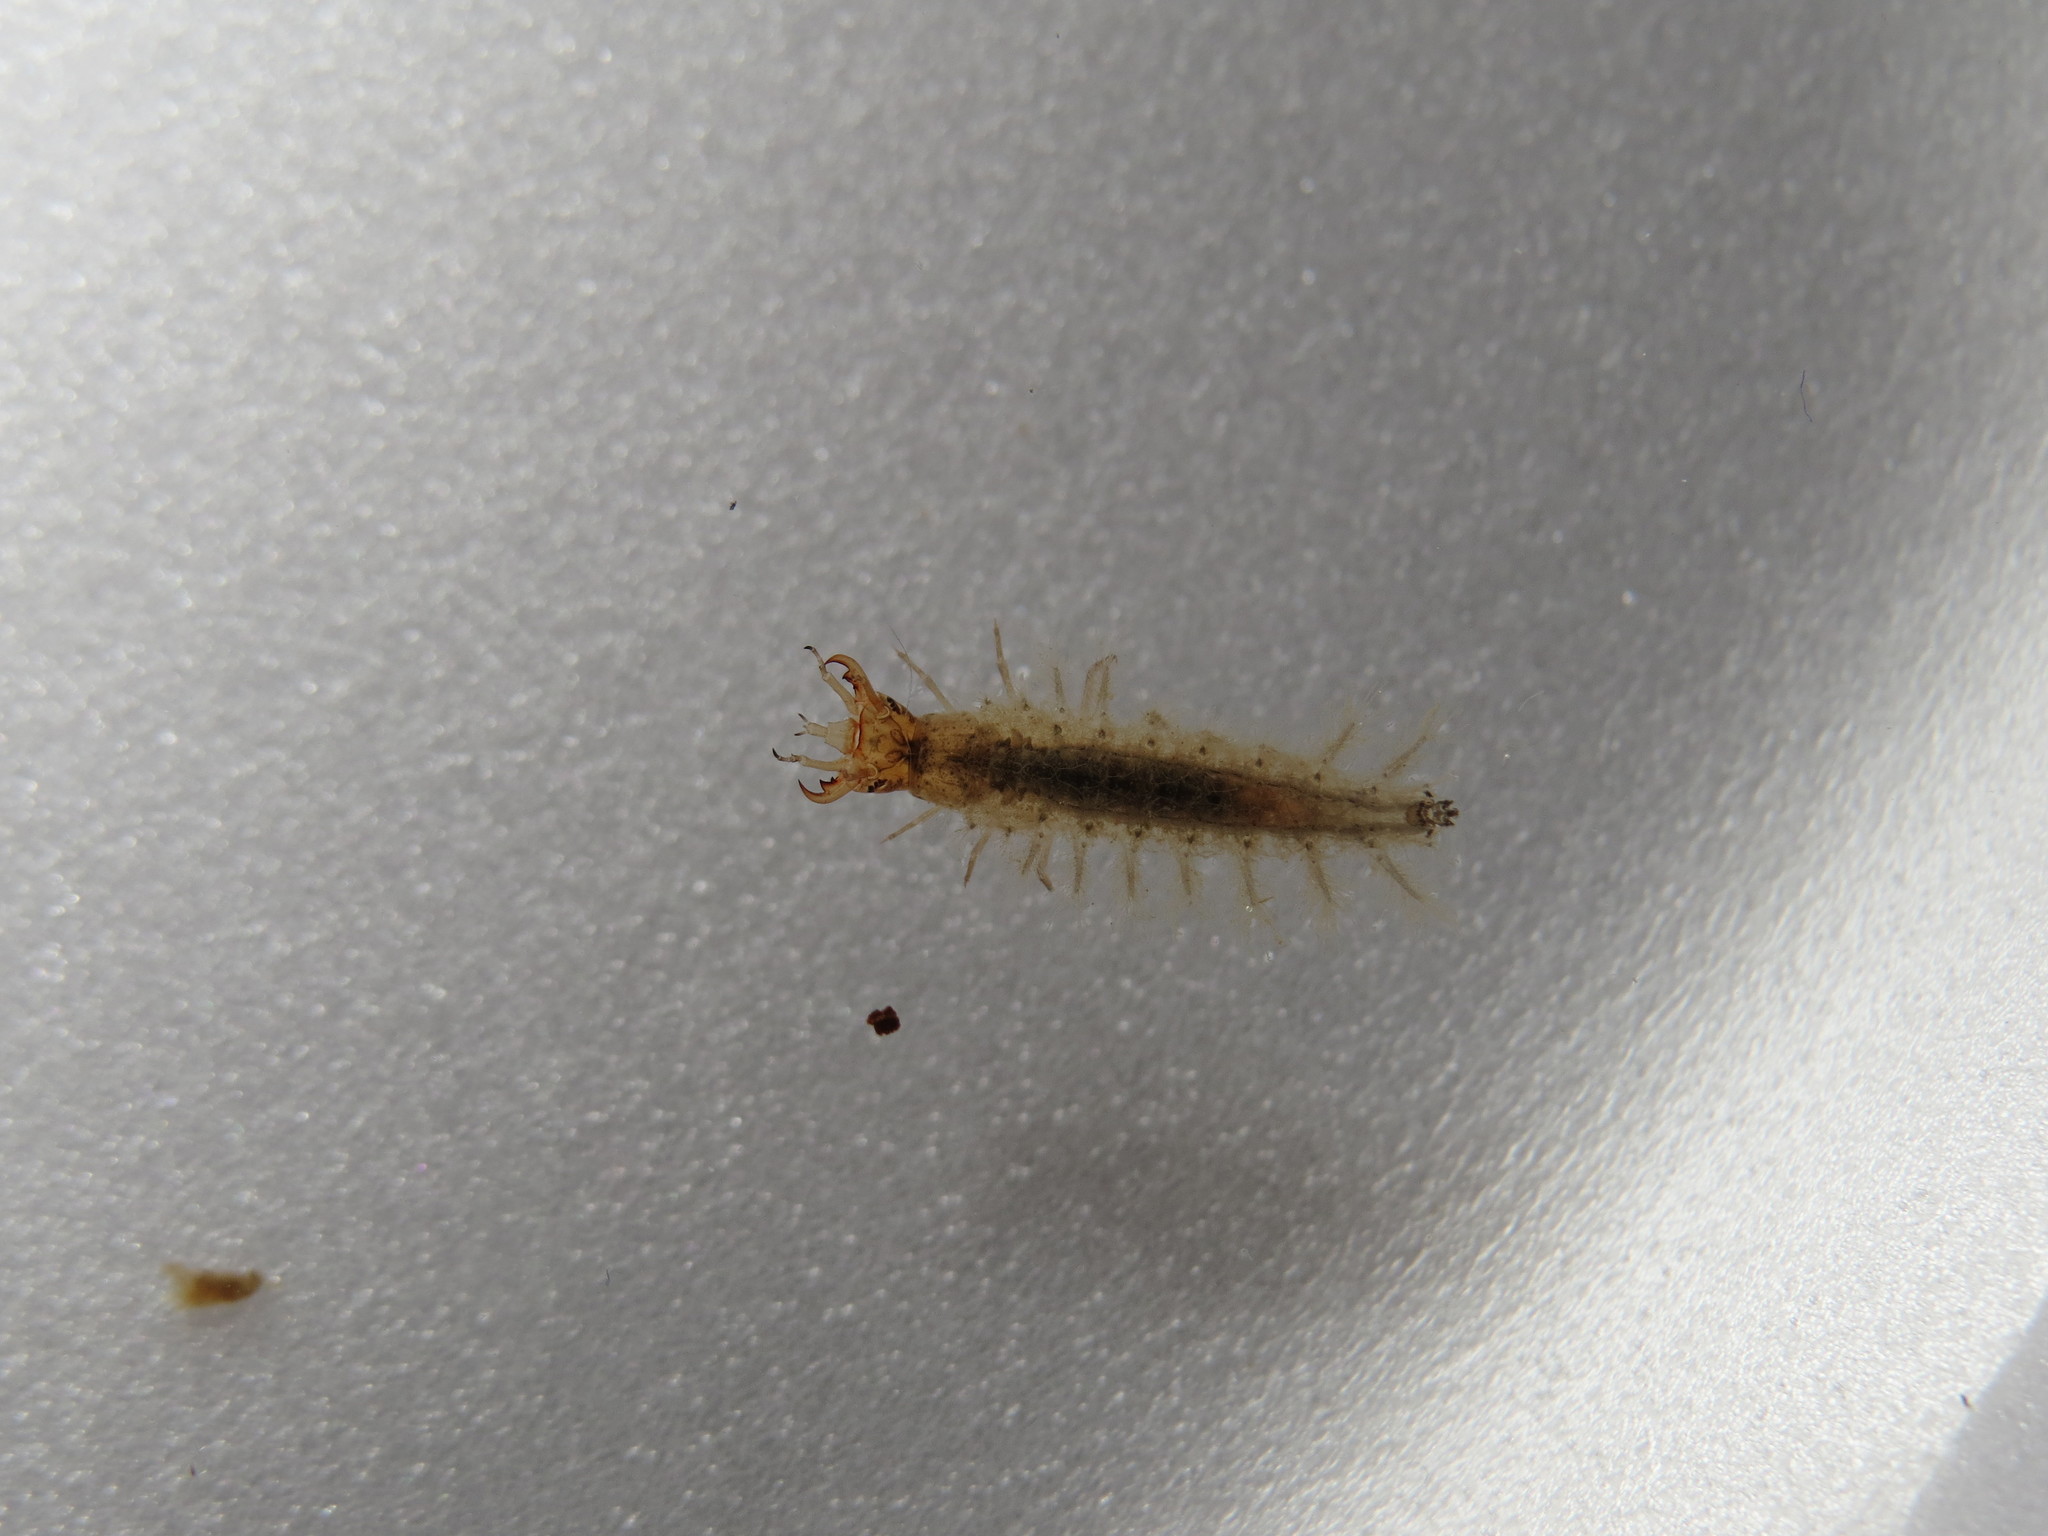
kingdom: Animalia
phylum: Arthropoda
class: Insecta
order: Coleoptera
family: Hydrophilidae
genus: Hydrochara
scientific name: Hydrochara caraboides
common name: Lesser silver water beetle
